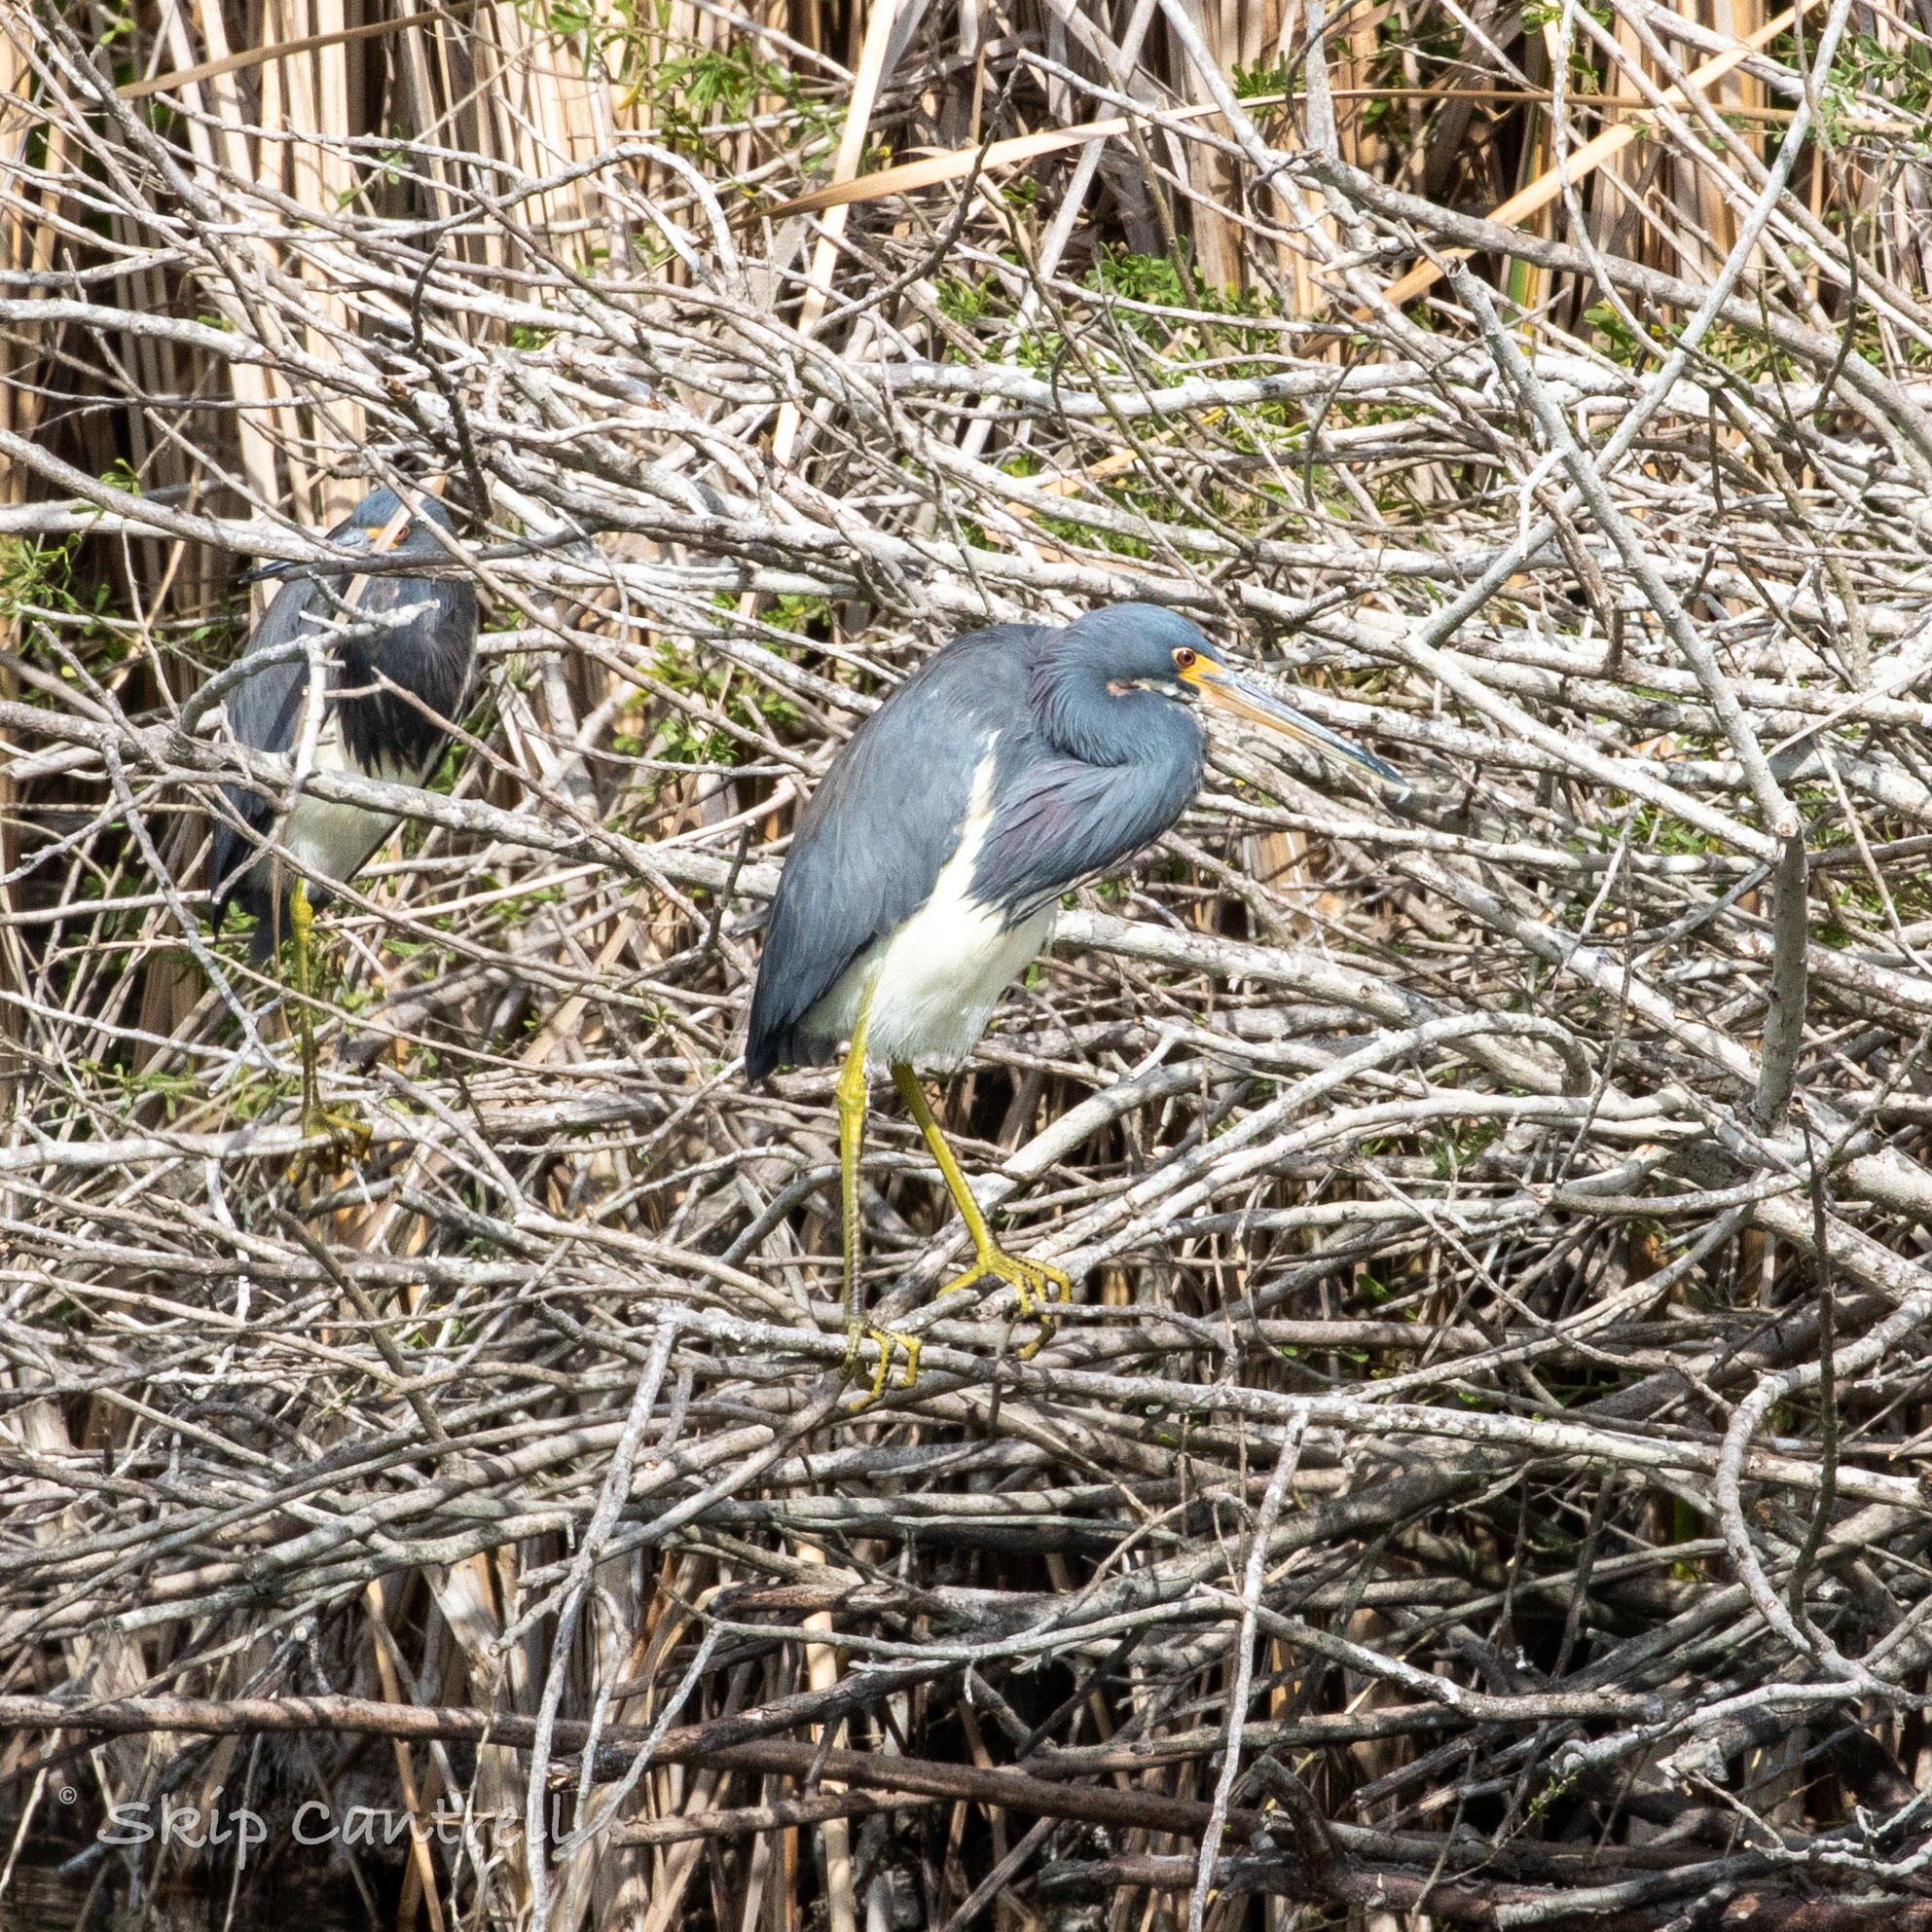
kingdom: Animalia
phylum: Chordata
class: Aves
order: Pelecaniformes
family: Ardeidae
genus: Egretta
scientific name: Egretta tricolor
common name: Tricolored heron
